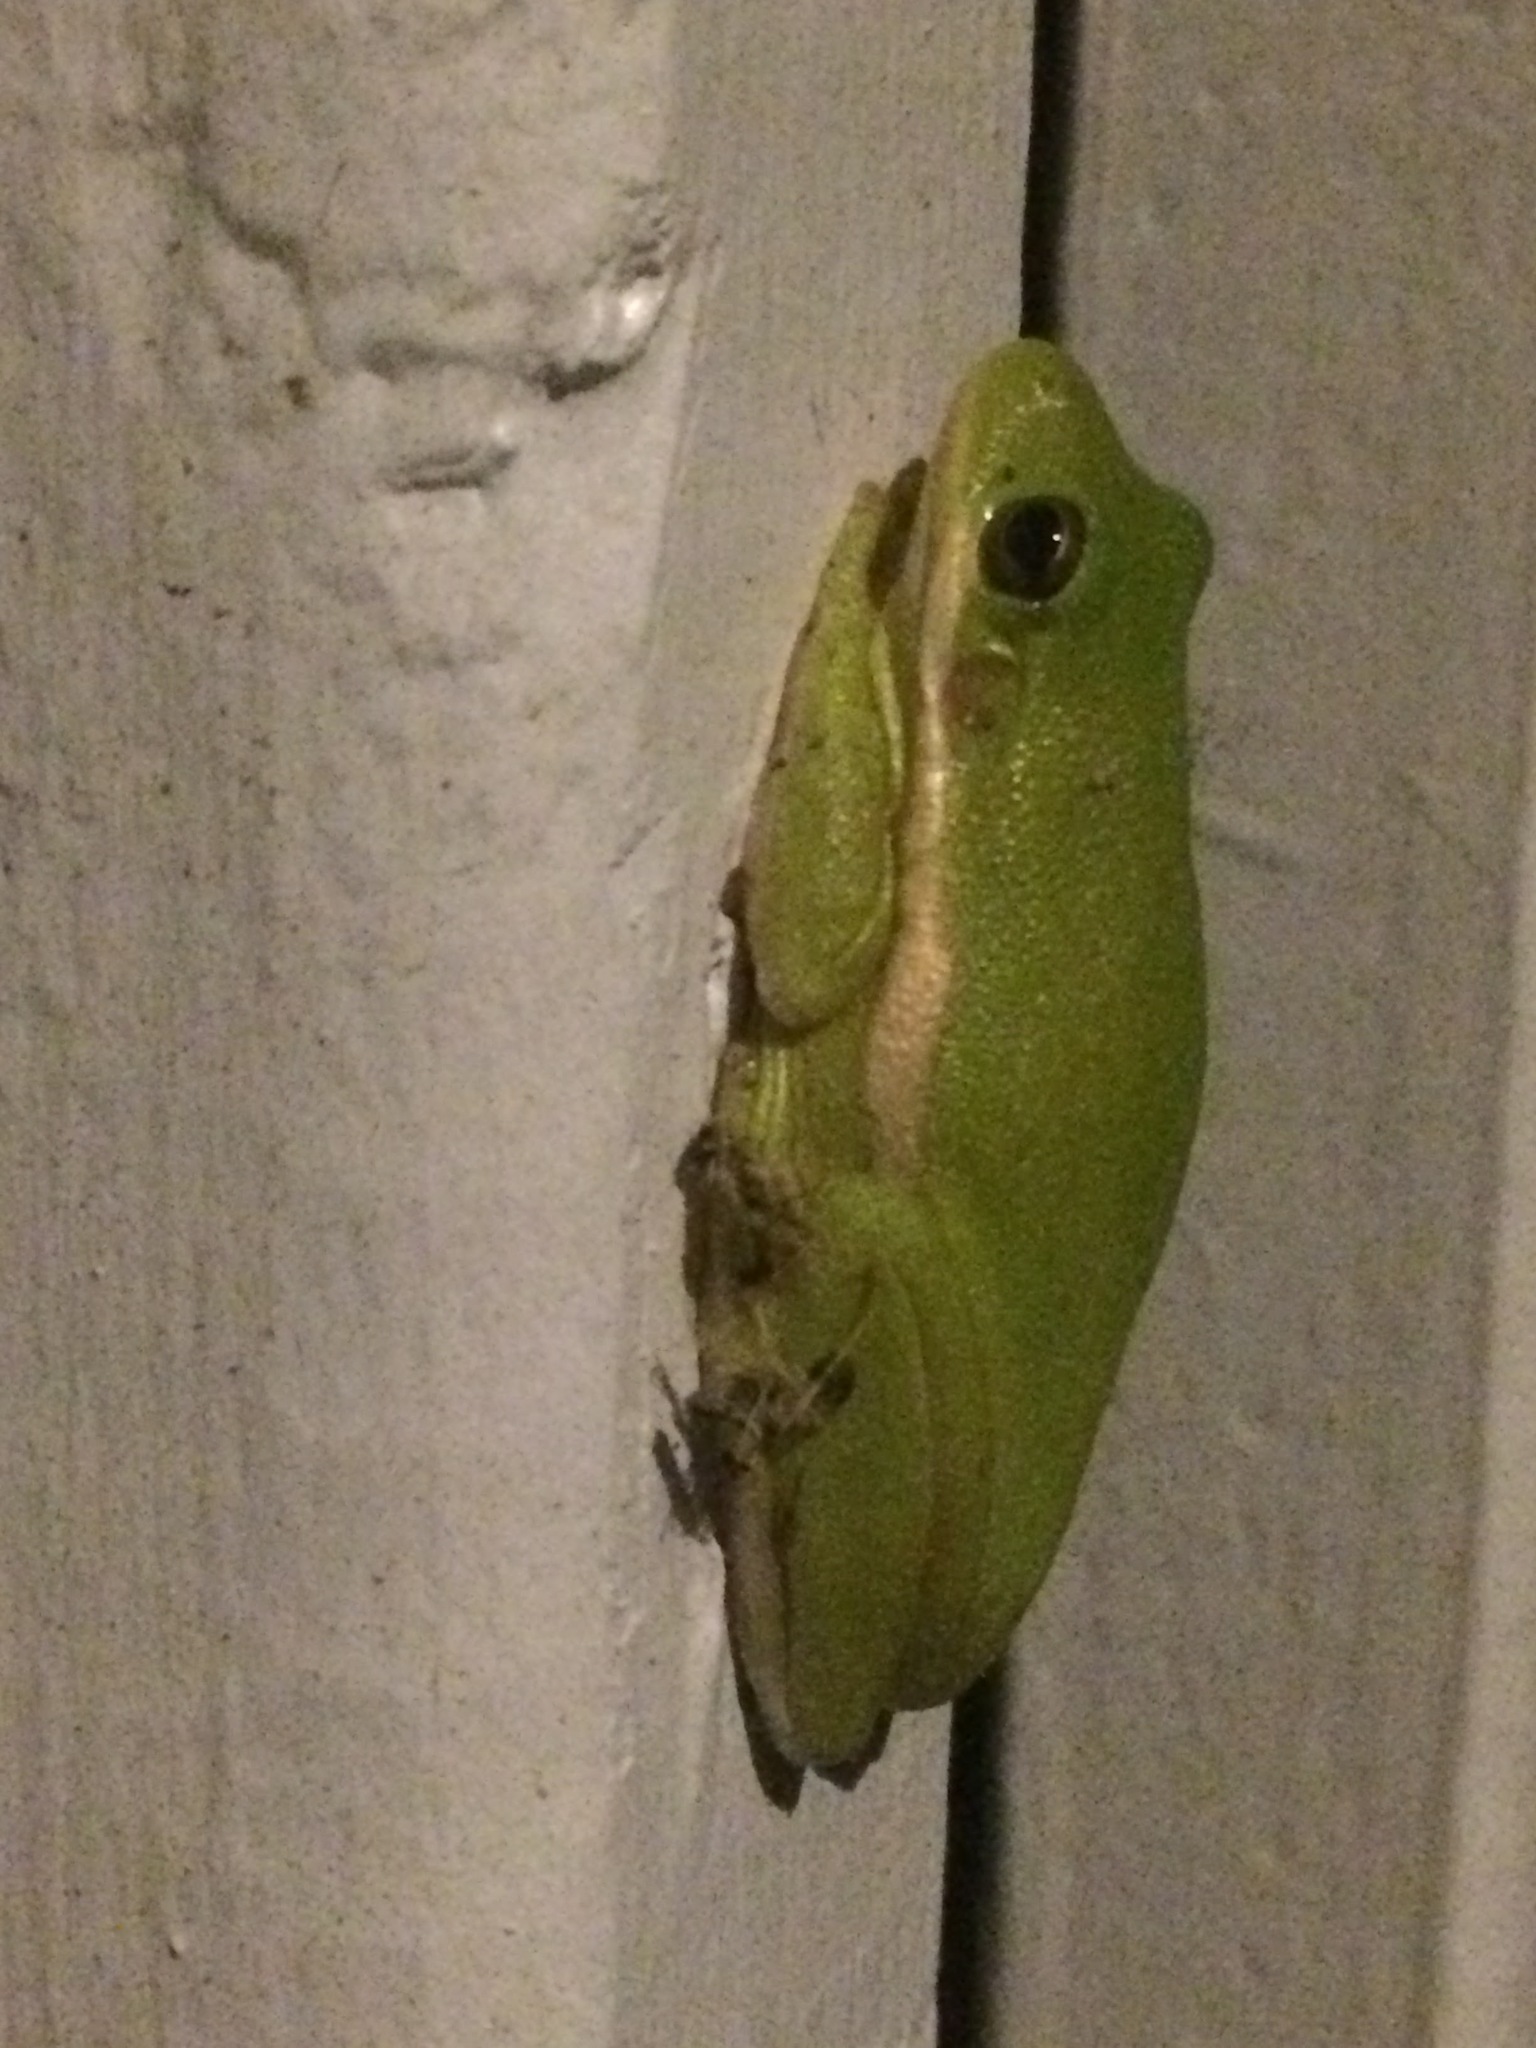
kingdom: Animalia
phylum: Chordata
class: Amphibia
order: Anura
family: Hylidae
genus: Dryophytes
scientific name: Dryophytes cinereus
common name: Green treefrog
